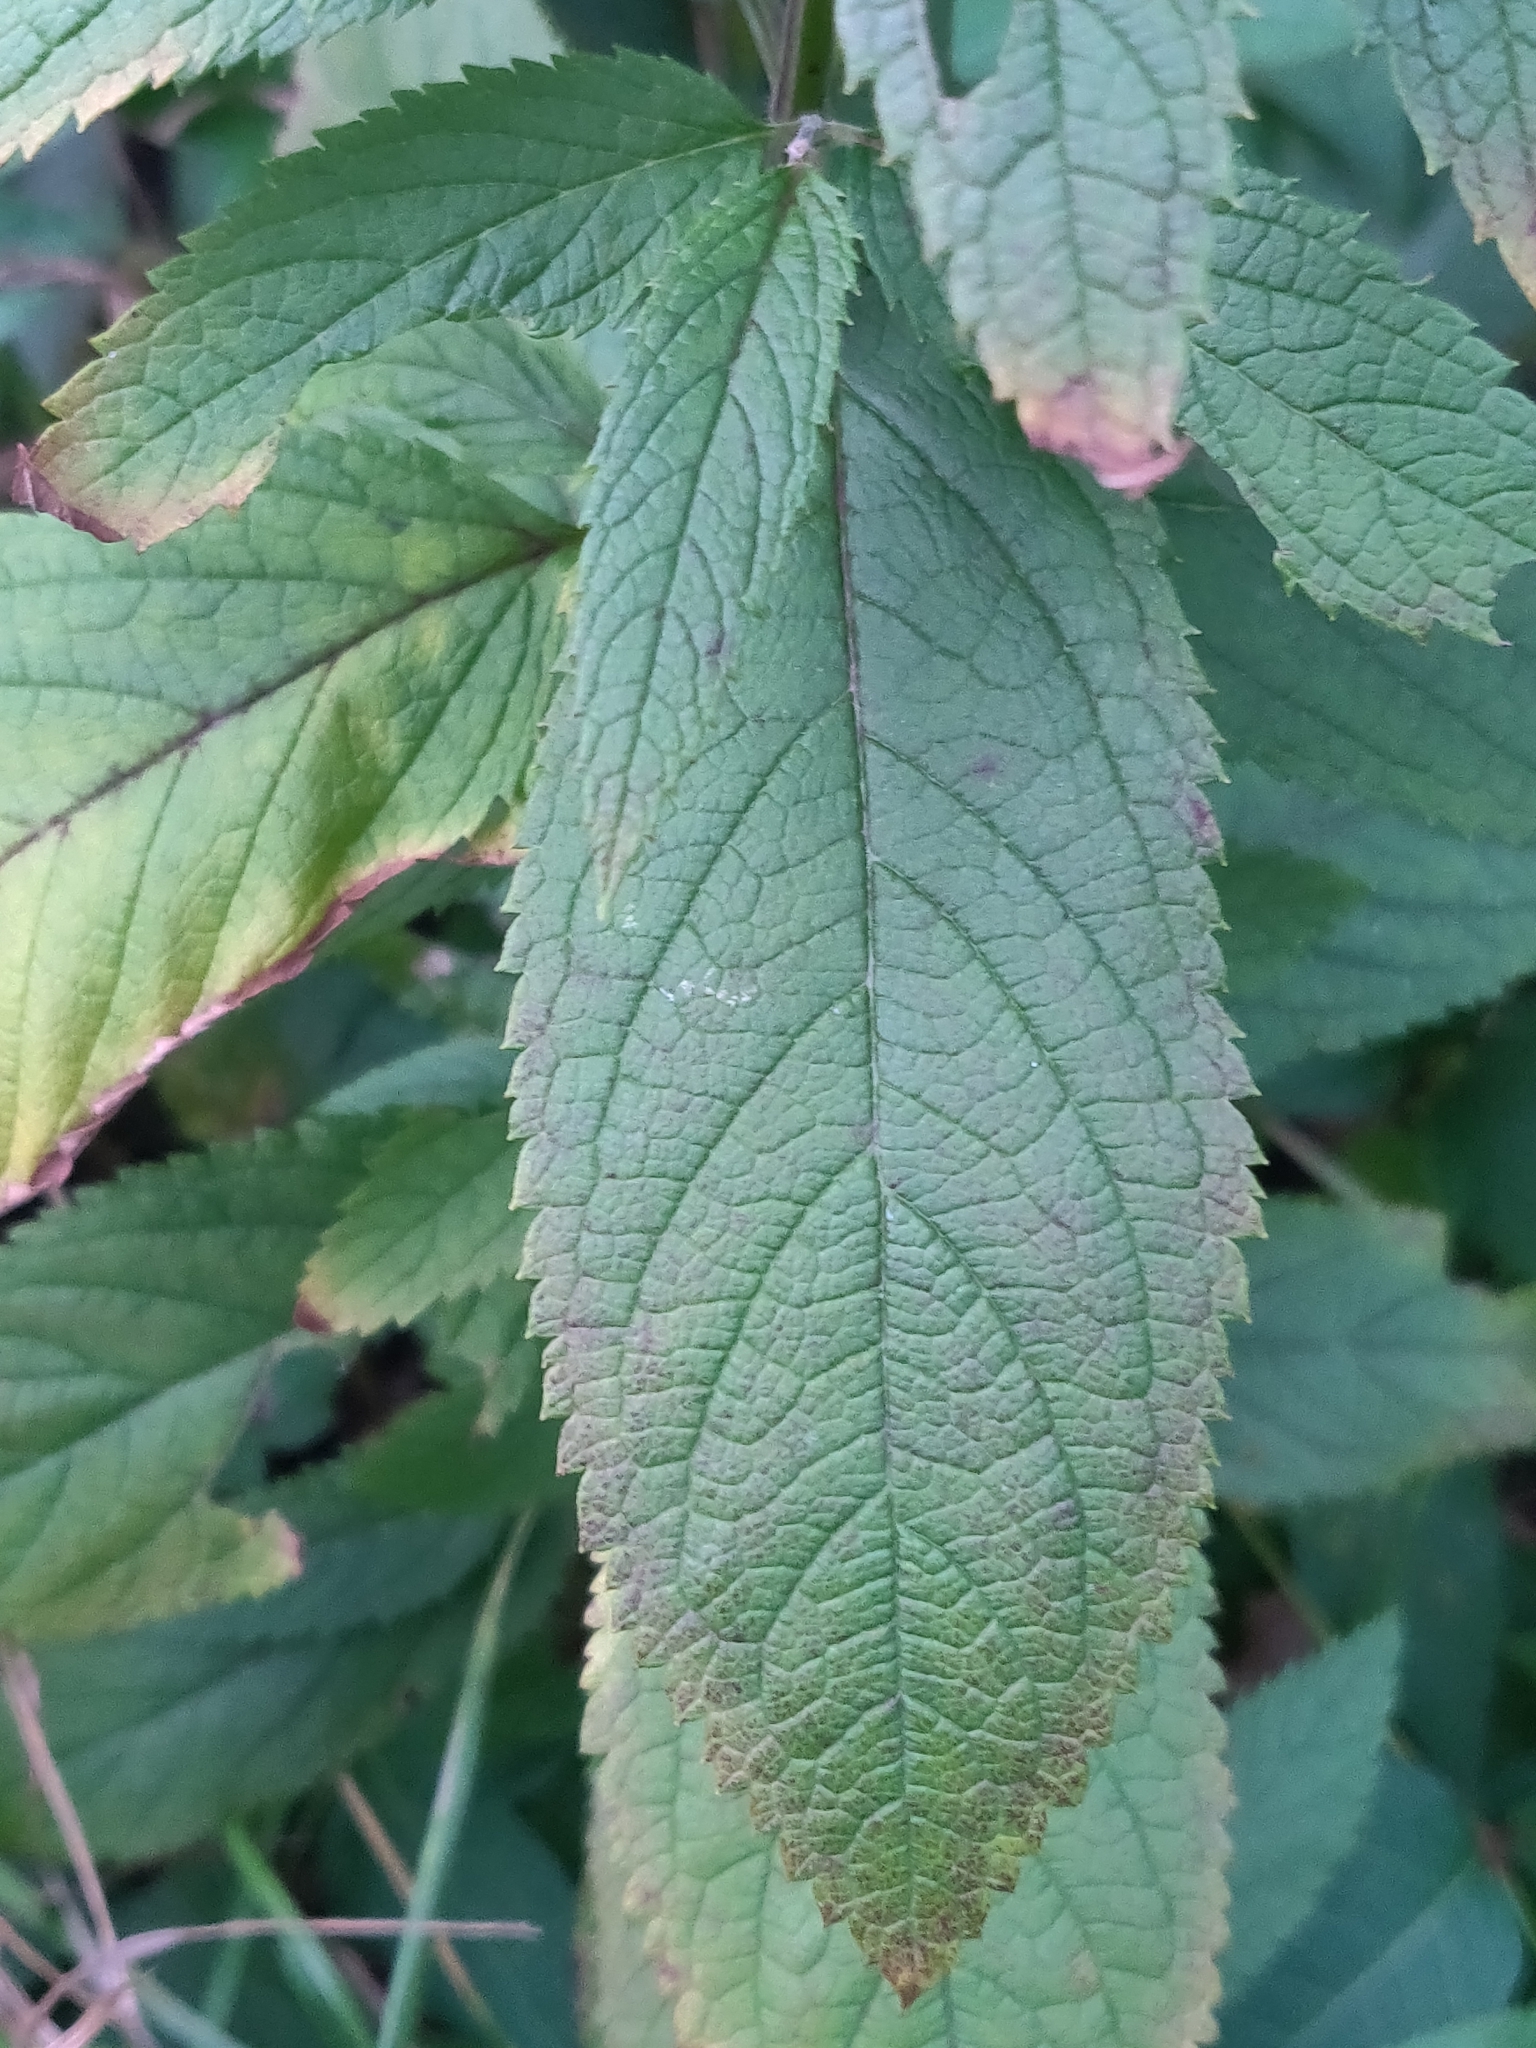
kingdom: Plantae
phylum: Tracheophyta
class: Magnoliopsida
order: Lamiales
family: Lamiaceae
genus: Teucrium
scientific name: Teucrium canadense
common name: American germander
